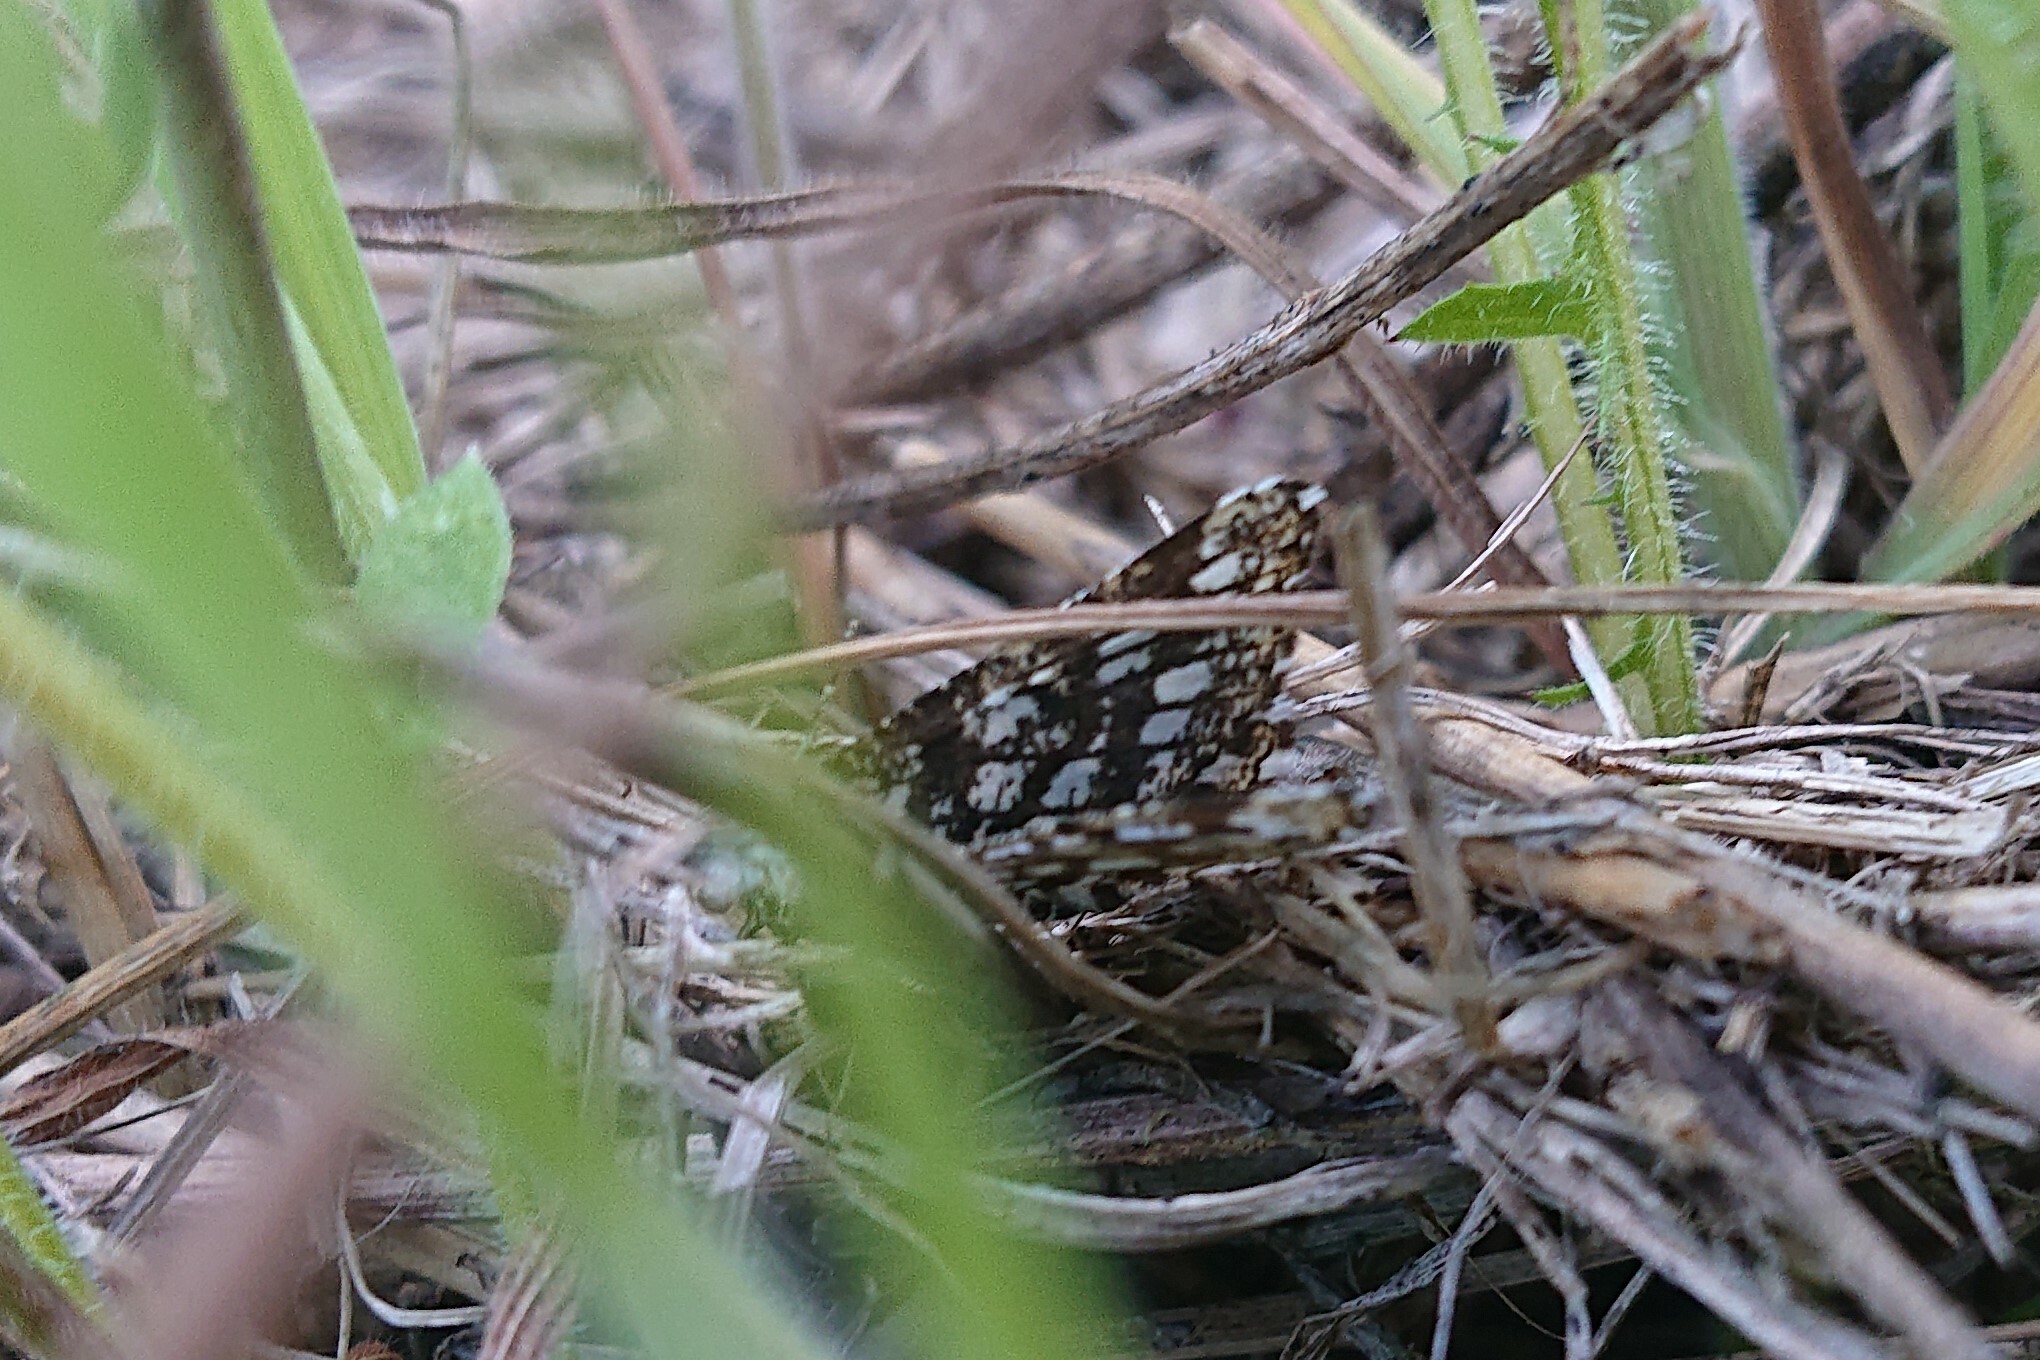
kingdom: Animalia
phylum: Arthropoda
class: Insecta
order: Lepidoptera
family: Geometridae
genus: Chiasmia
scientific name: Chiasmia clathrata
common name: Latticed heath
